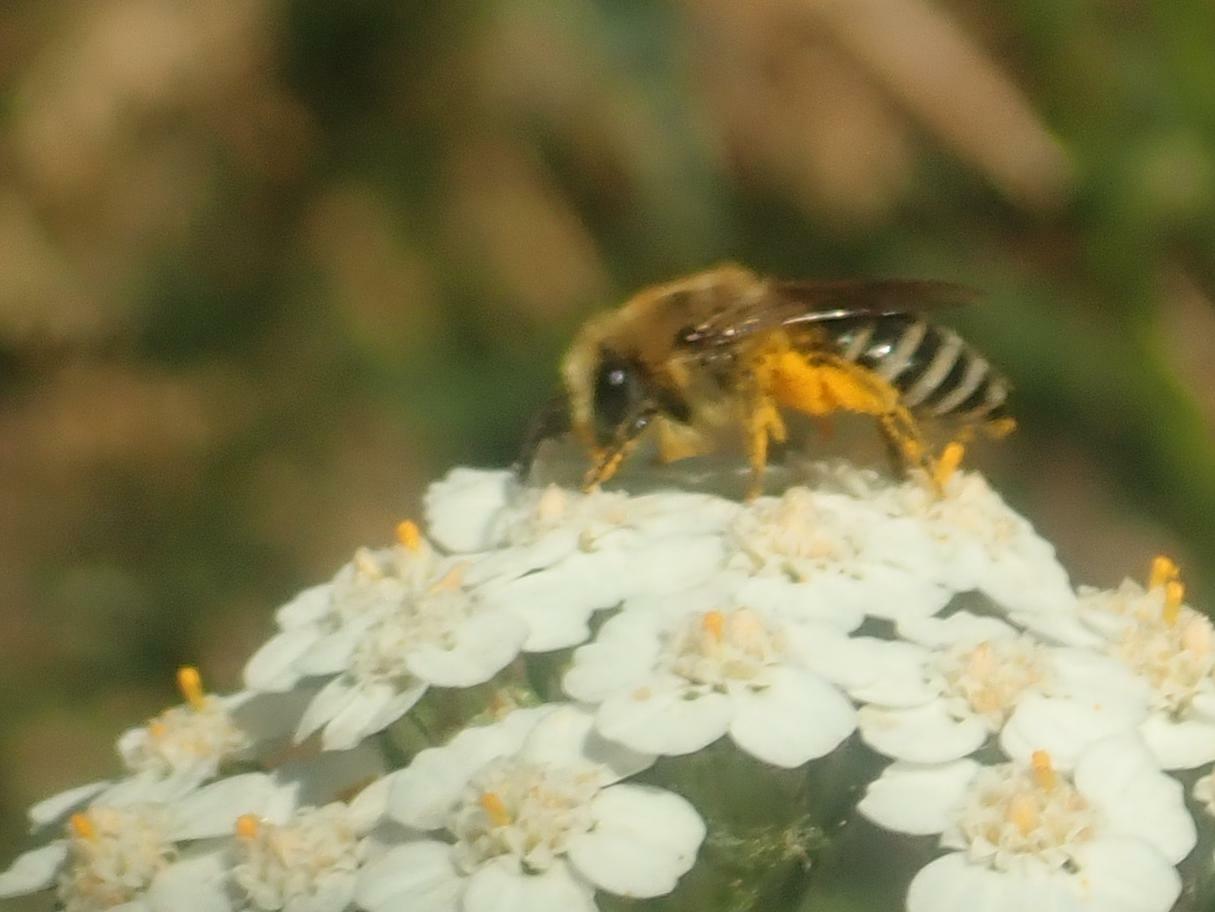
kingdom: Animalia
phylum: Arthropoda
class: Insecta
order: Hymenoptera
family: Colletidae
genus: Colletes
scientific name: Colletes
